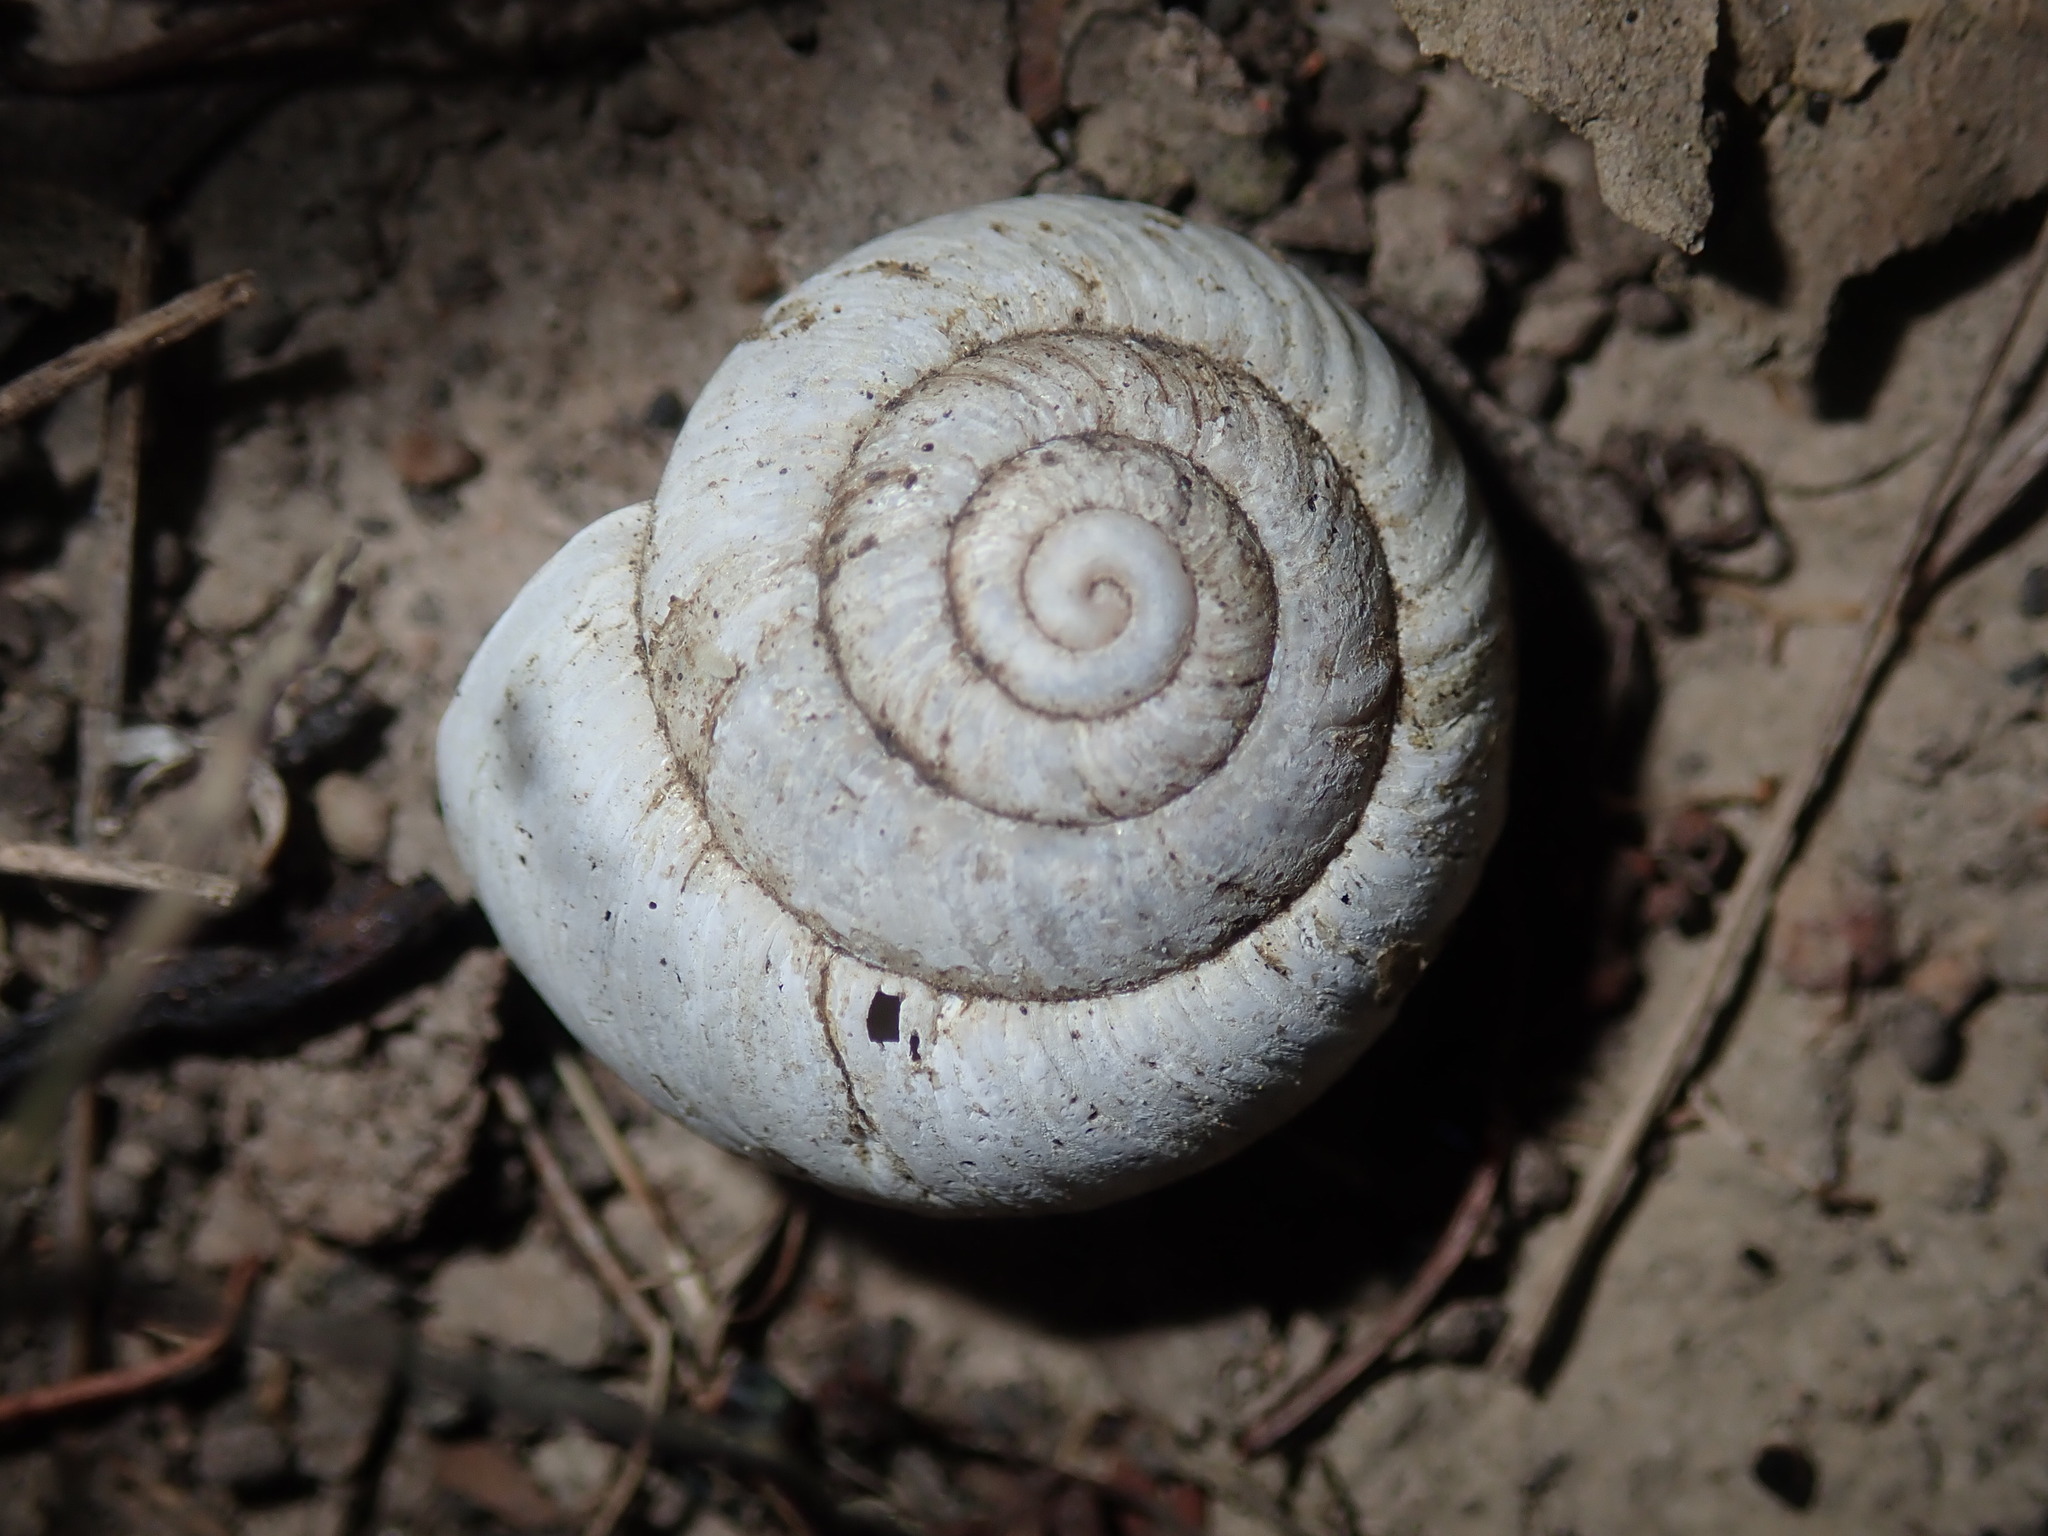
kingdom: Animalia
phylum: Mollusca
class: Gastropoda
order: Stylommatophora
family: Camaenidae
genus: Sauroconcha
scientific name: Sauroconcha sheai
